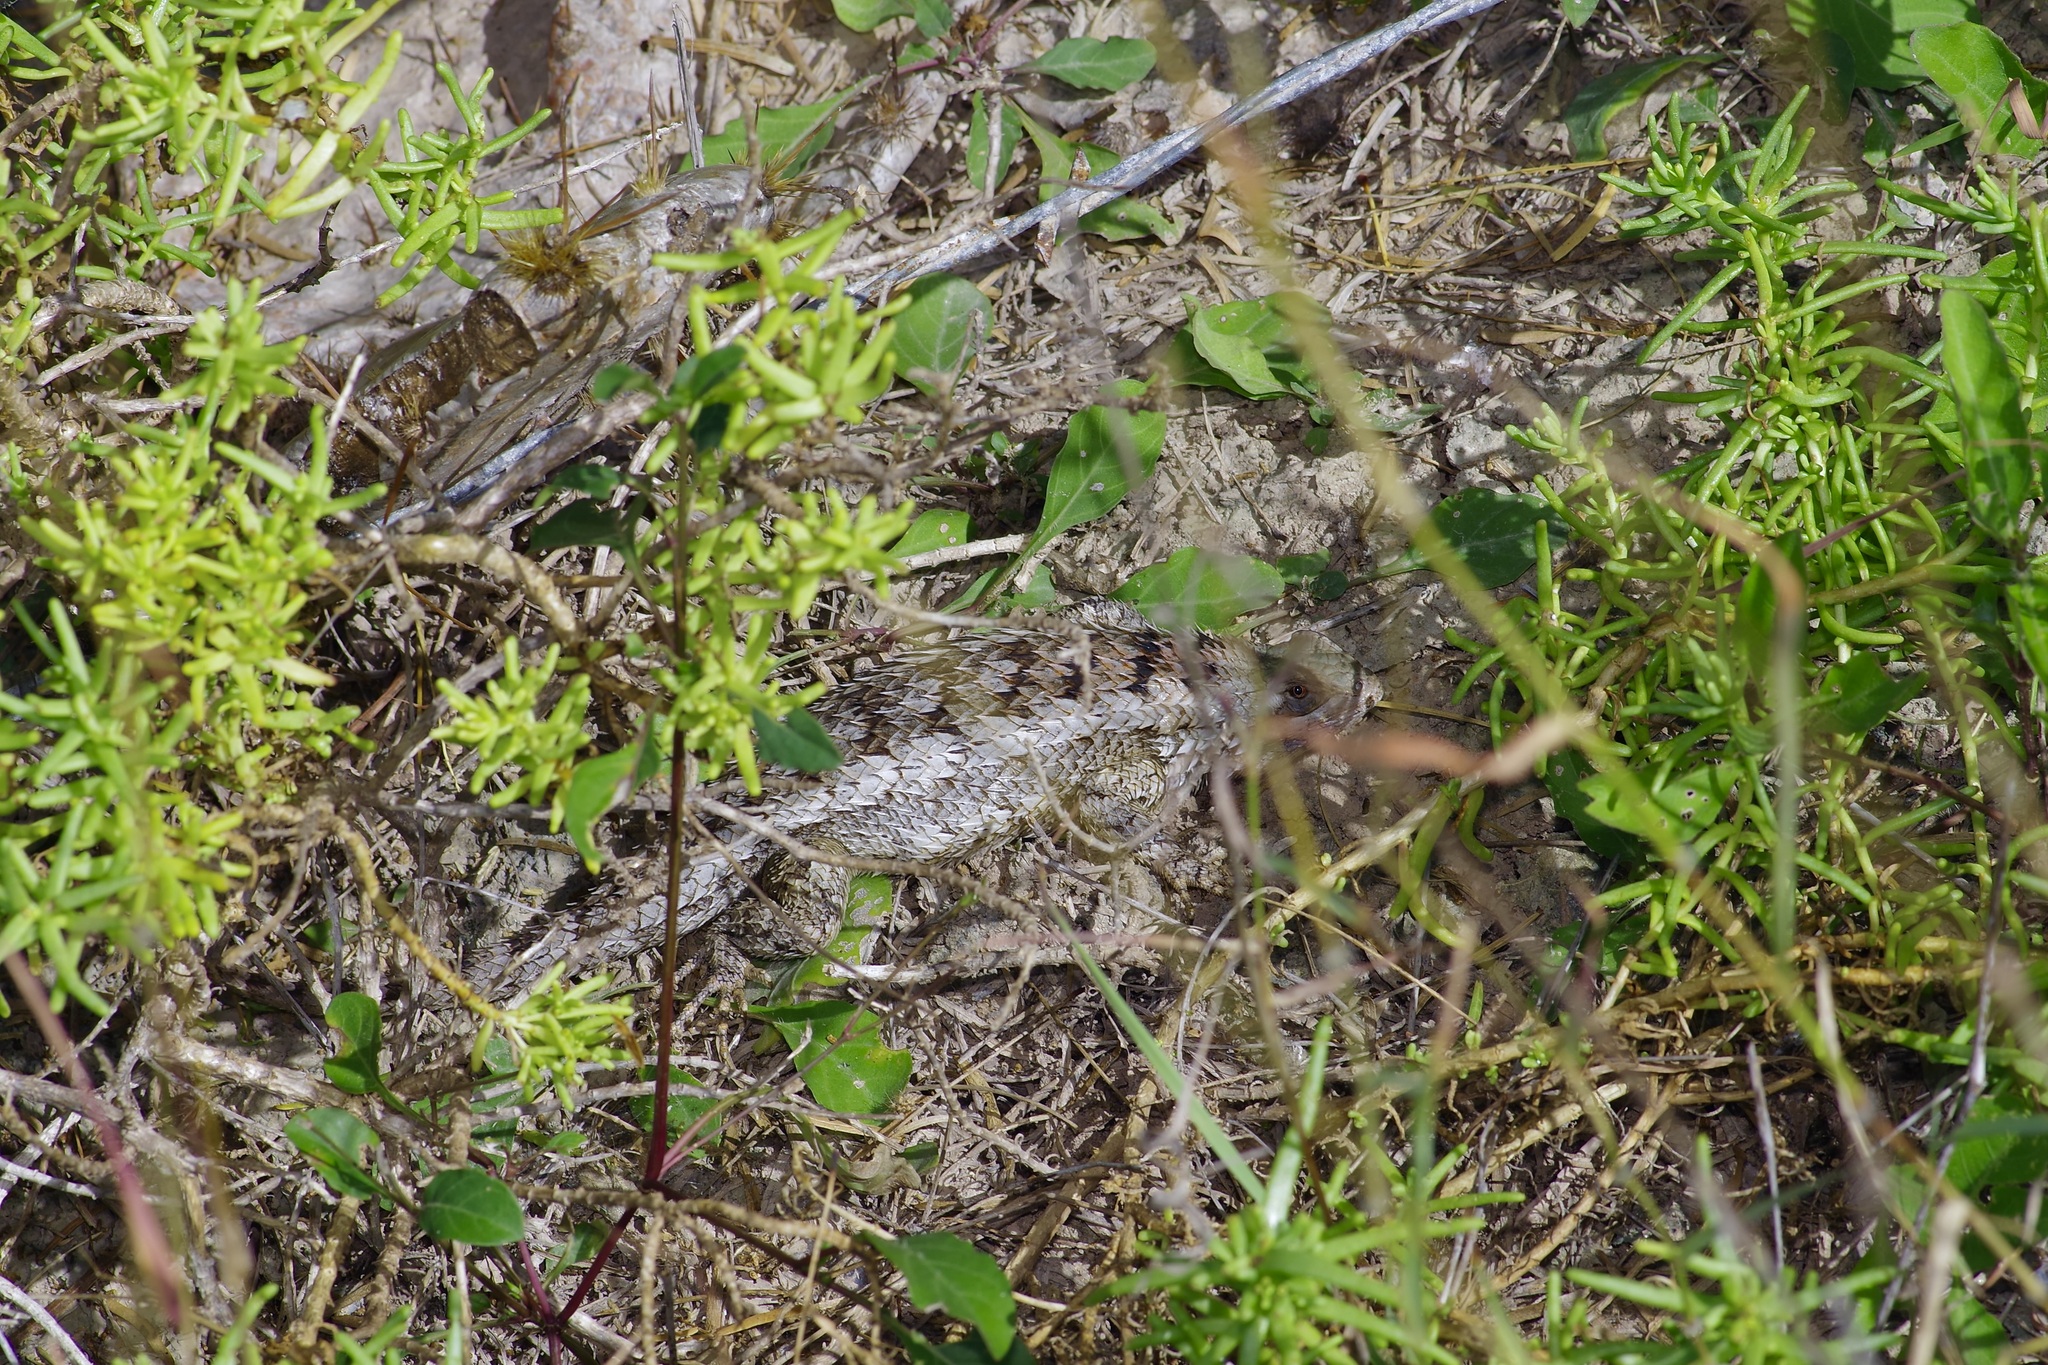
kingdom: Animalia
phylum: Chordata
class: Squamata
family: Phrynosomatidae
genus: Sceloporus
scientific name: Sceloporus olivaceus
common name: Texas spiny lizard
